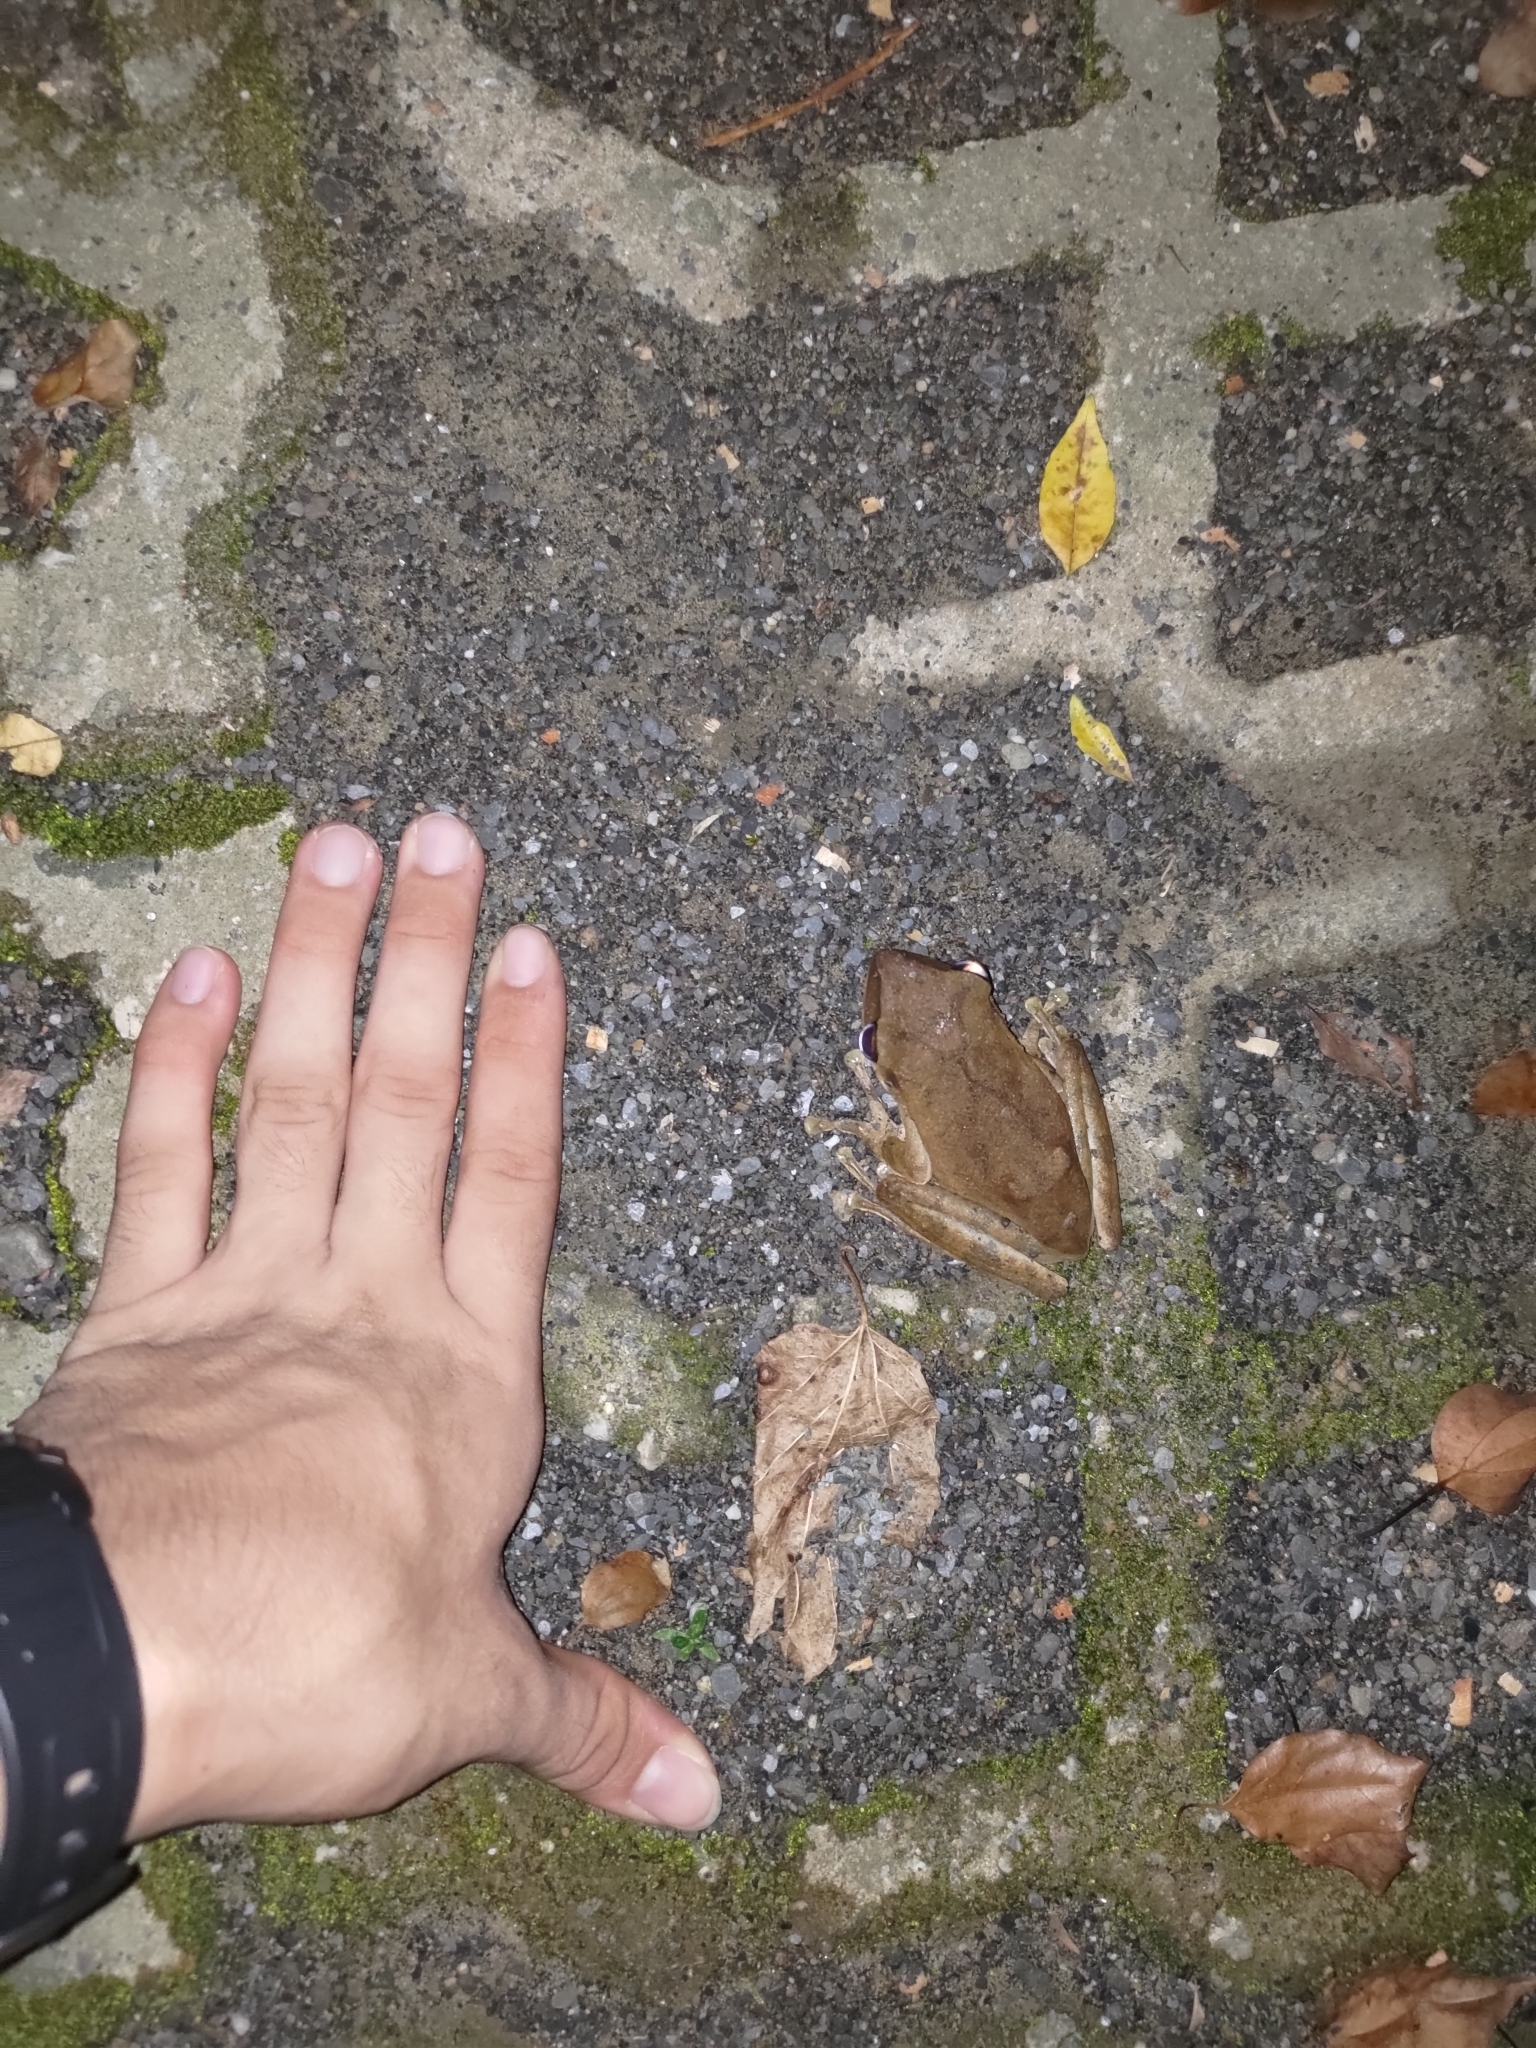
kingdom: Animalia
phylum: Chordata
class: Amphibia
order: Anura
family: Rhacophoridae
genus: Polypedates
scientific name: Polypedates megacephalus
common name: Hong kong whipping frog
